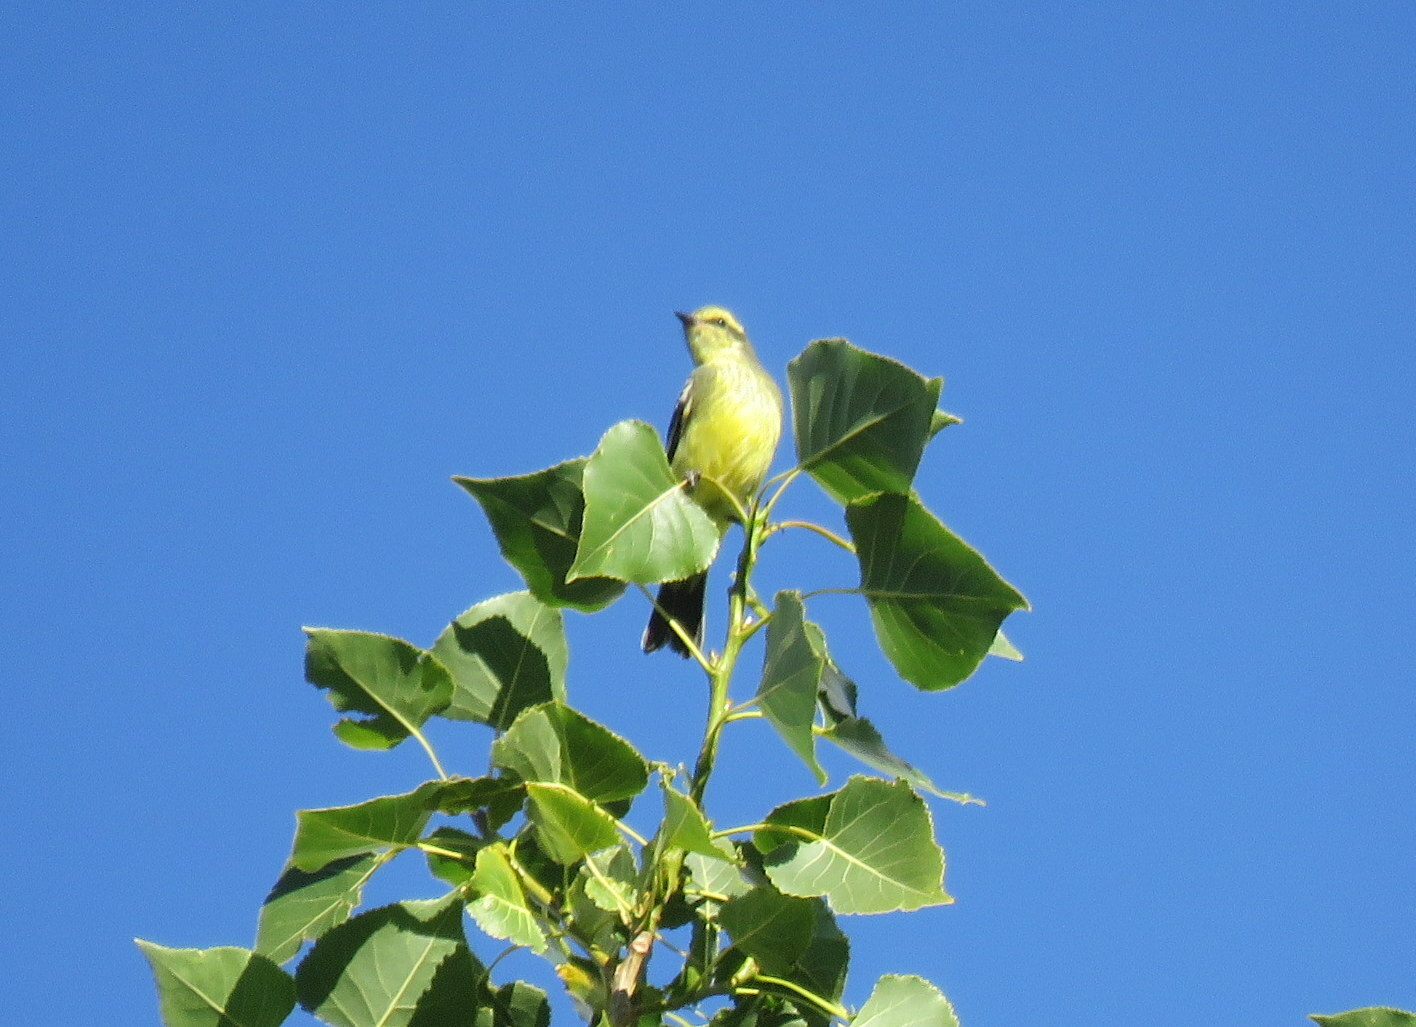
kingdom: Animalia
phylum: Chordata
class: Aves
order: Passeriformes
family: Tyrannidae
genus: Satrapa
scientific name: Satrapa icterophrys
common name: Yellow-browed tyrant
